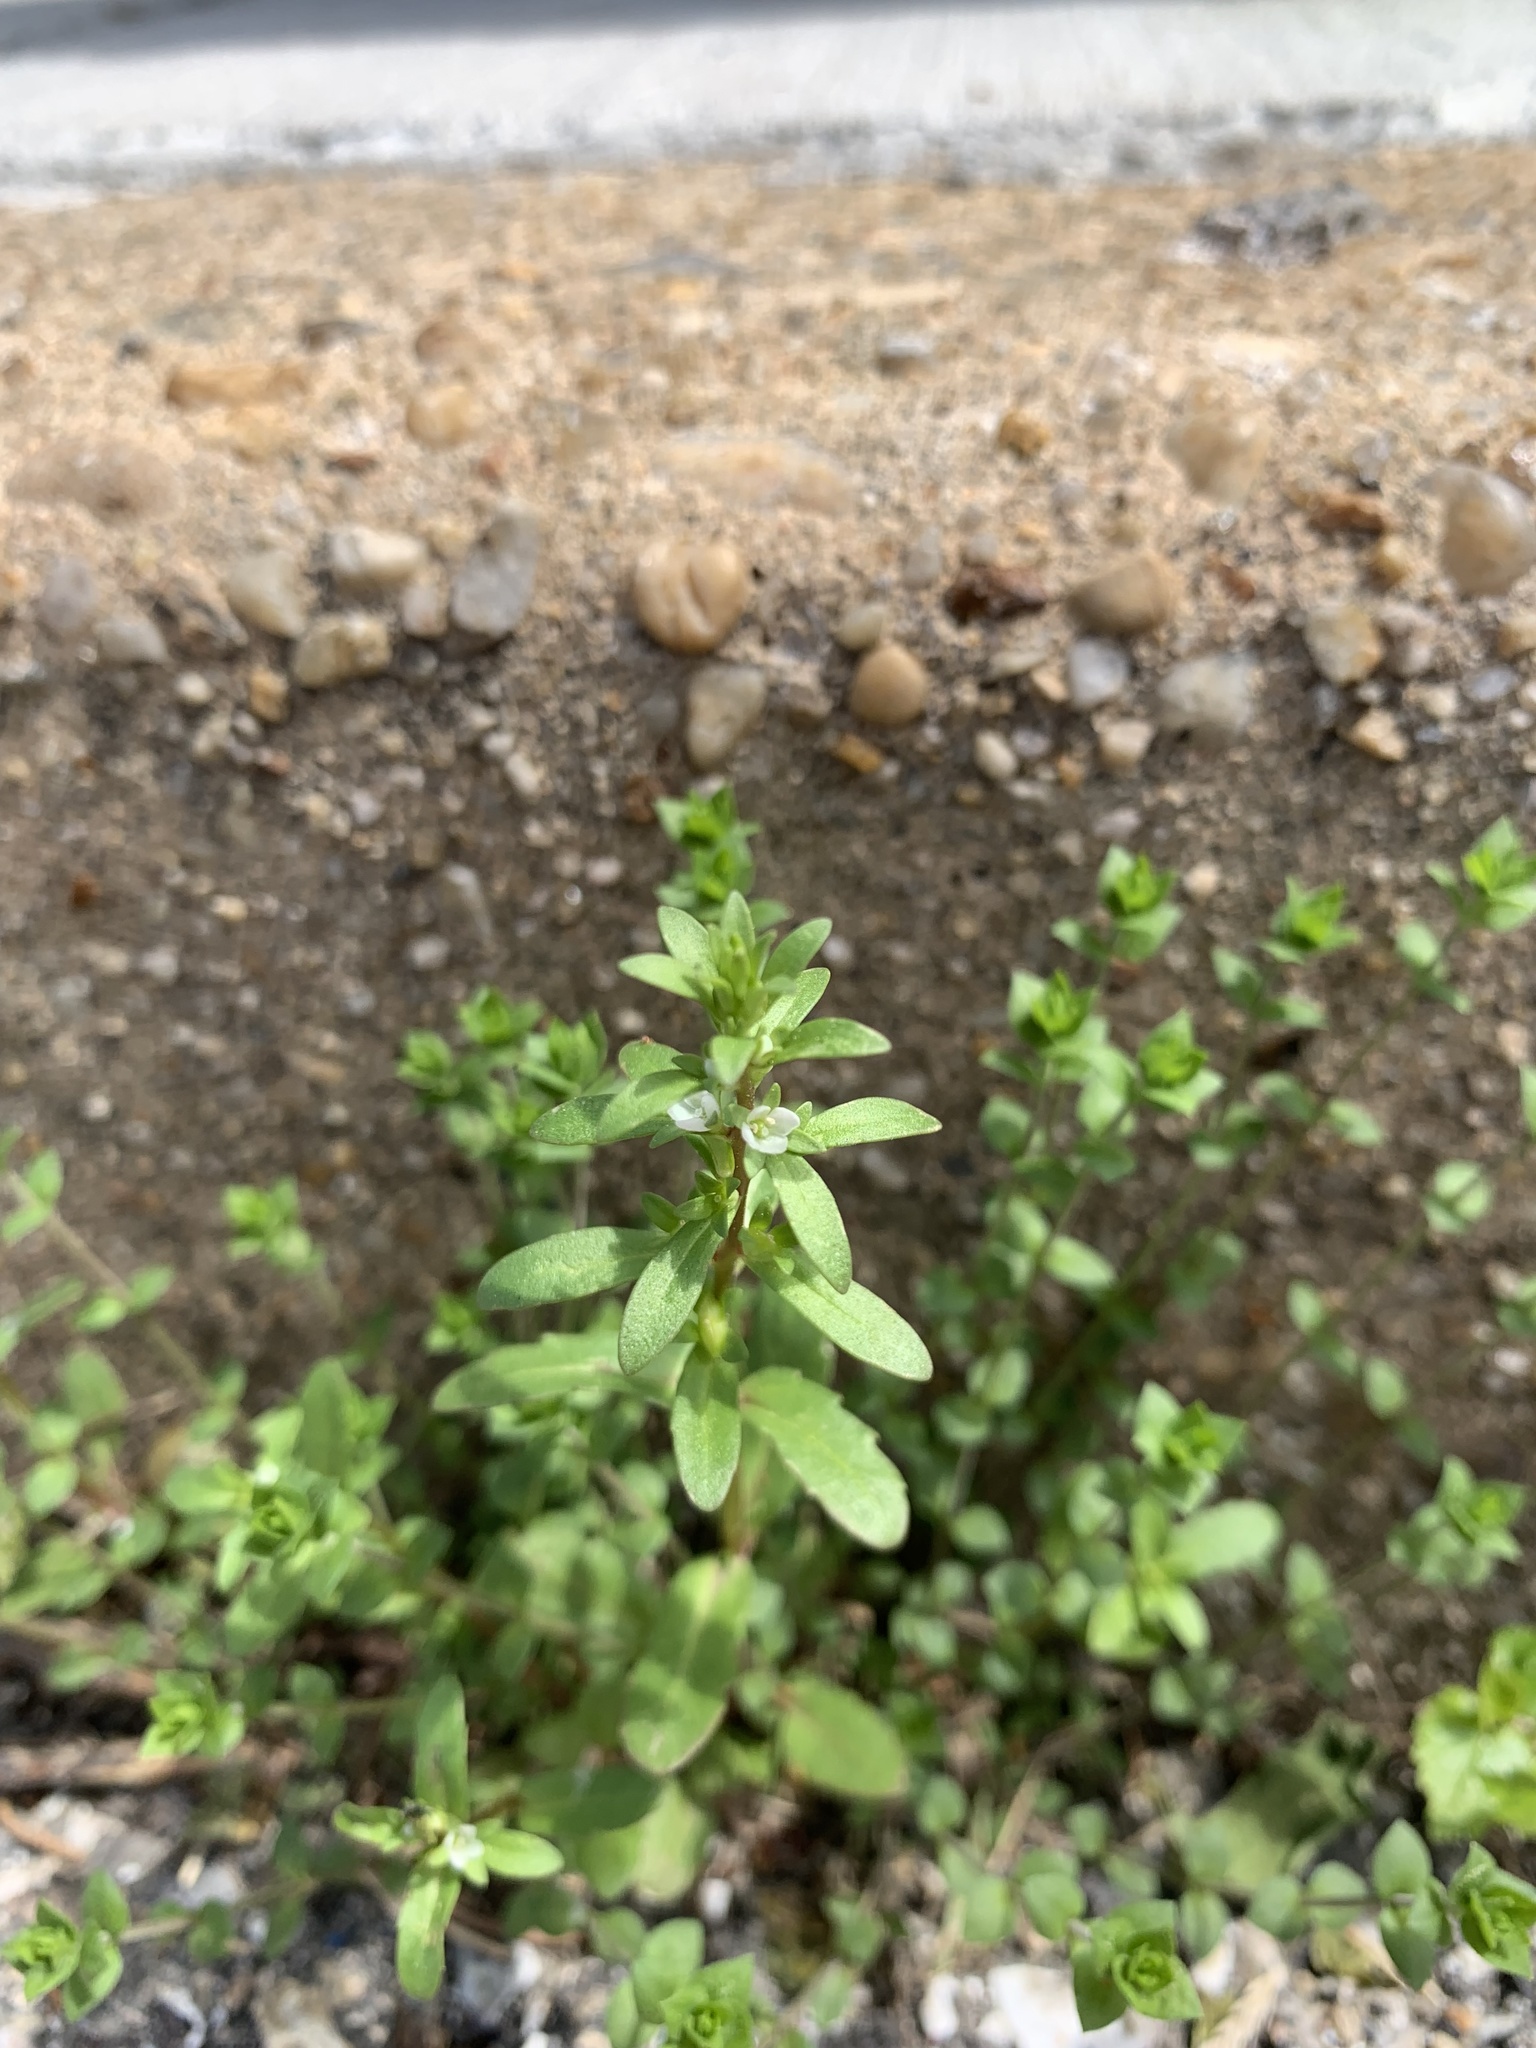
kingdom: Plantae
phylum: Tracheophyta
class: Magnoliopsida
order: Lamiales
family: Plantaginaceae
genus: Veronica
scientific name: Veronica peregrina
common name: Neckweed
